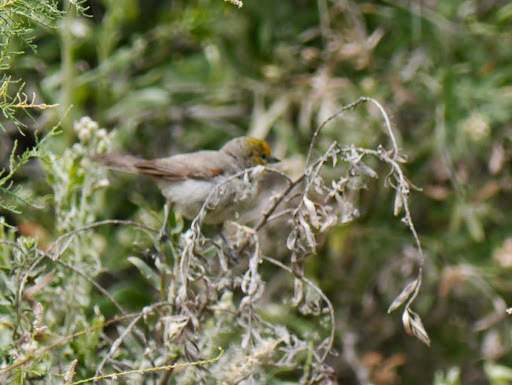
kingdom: Animalia
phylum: Chordata
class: Aves
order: Passeriformes
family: Remizidae
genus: Auriparus
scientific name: Auriparus flaviceps
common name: Verdin
